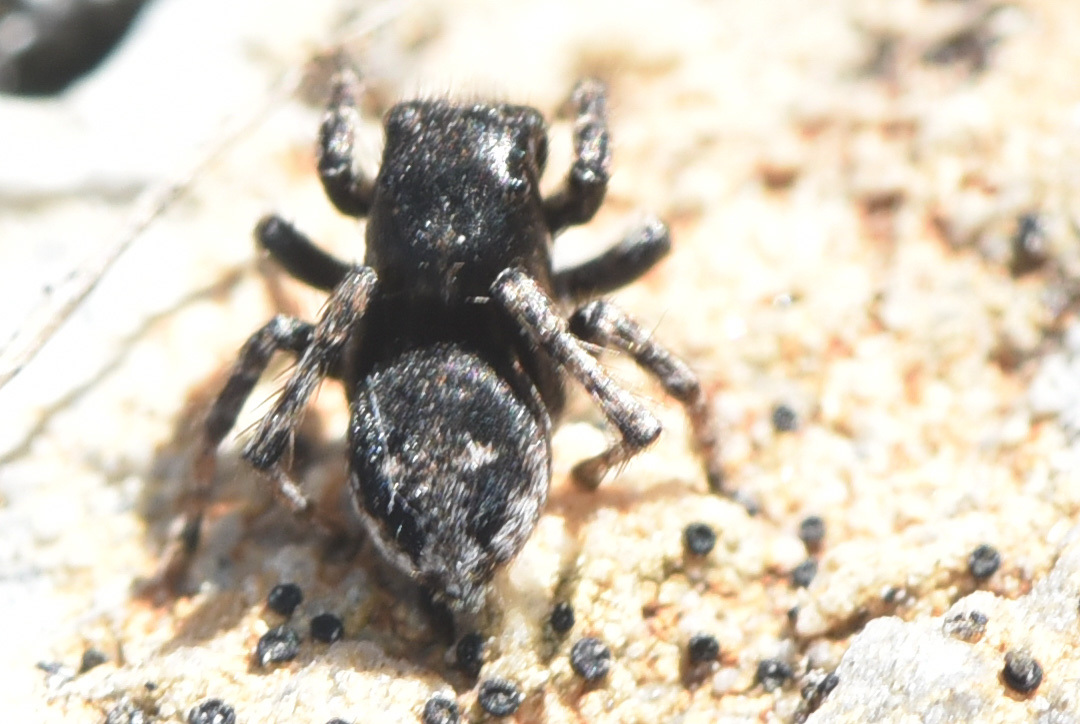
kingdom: Animalia
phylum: Arthropoda
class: Arachnida
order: Araneae
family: Salticidae
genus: Sittisax
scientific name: Sittisax ranieri
